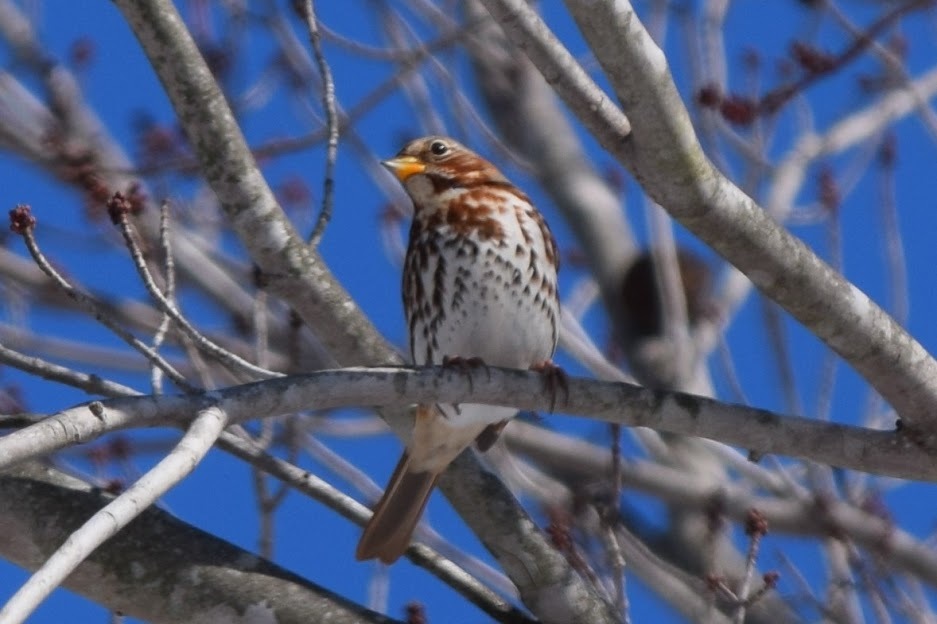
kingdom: Animalia
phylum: Chordata
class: Aves
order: Passeriformes
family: Passerellidae
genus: Passerella
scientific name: Passerella iliaca
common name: Fox sparrow
